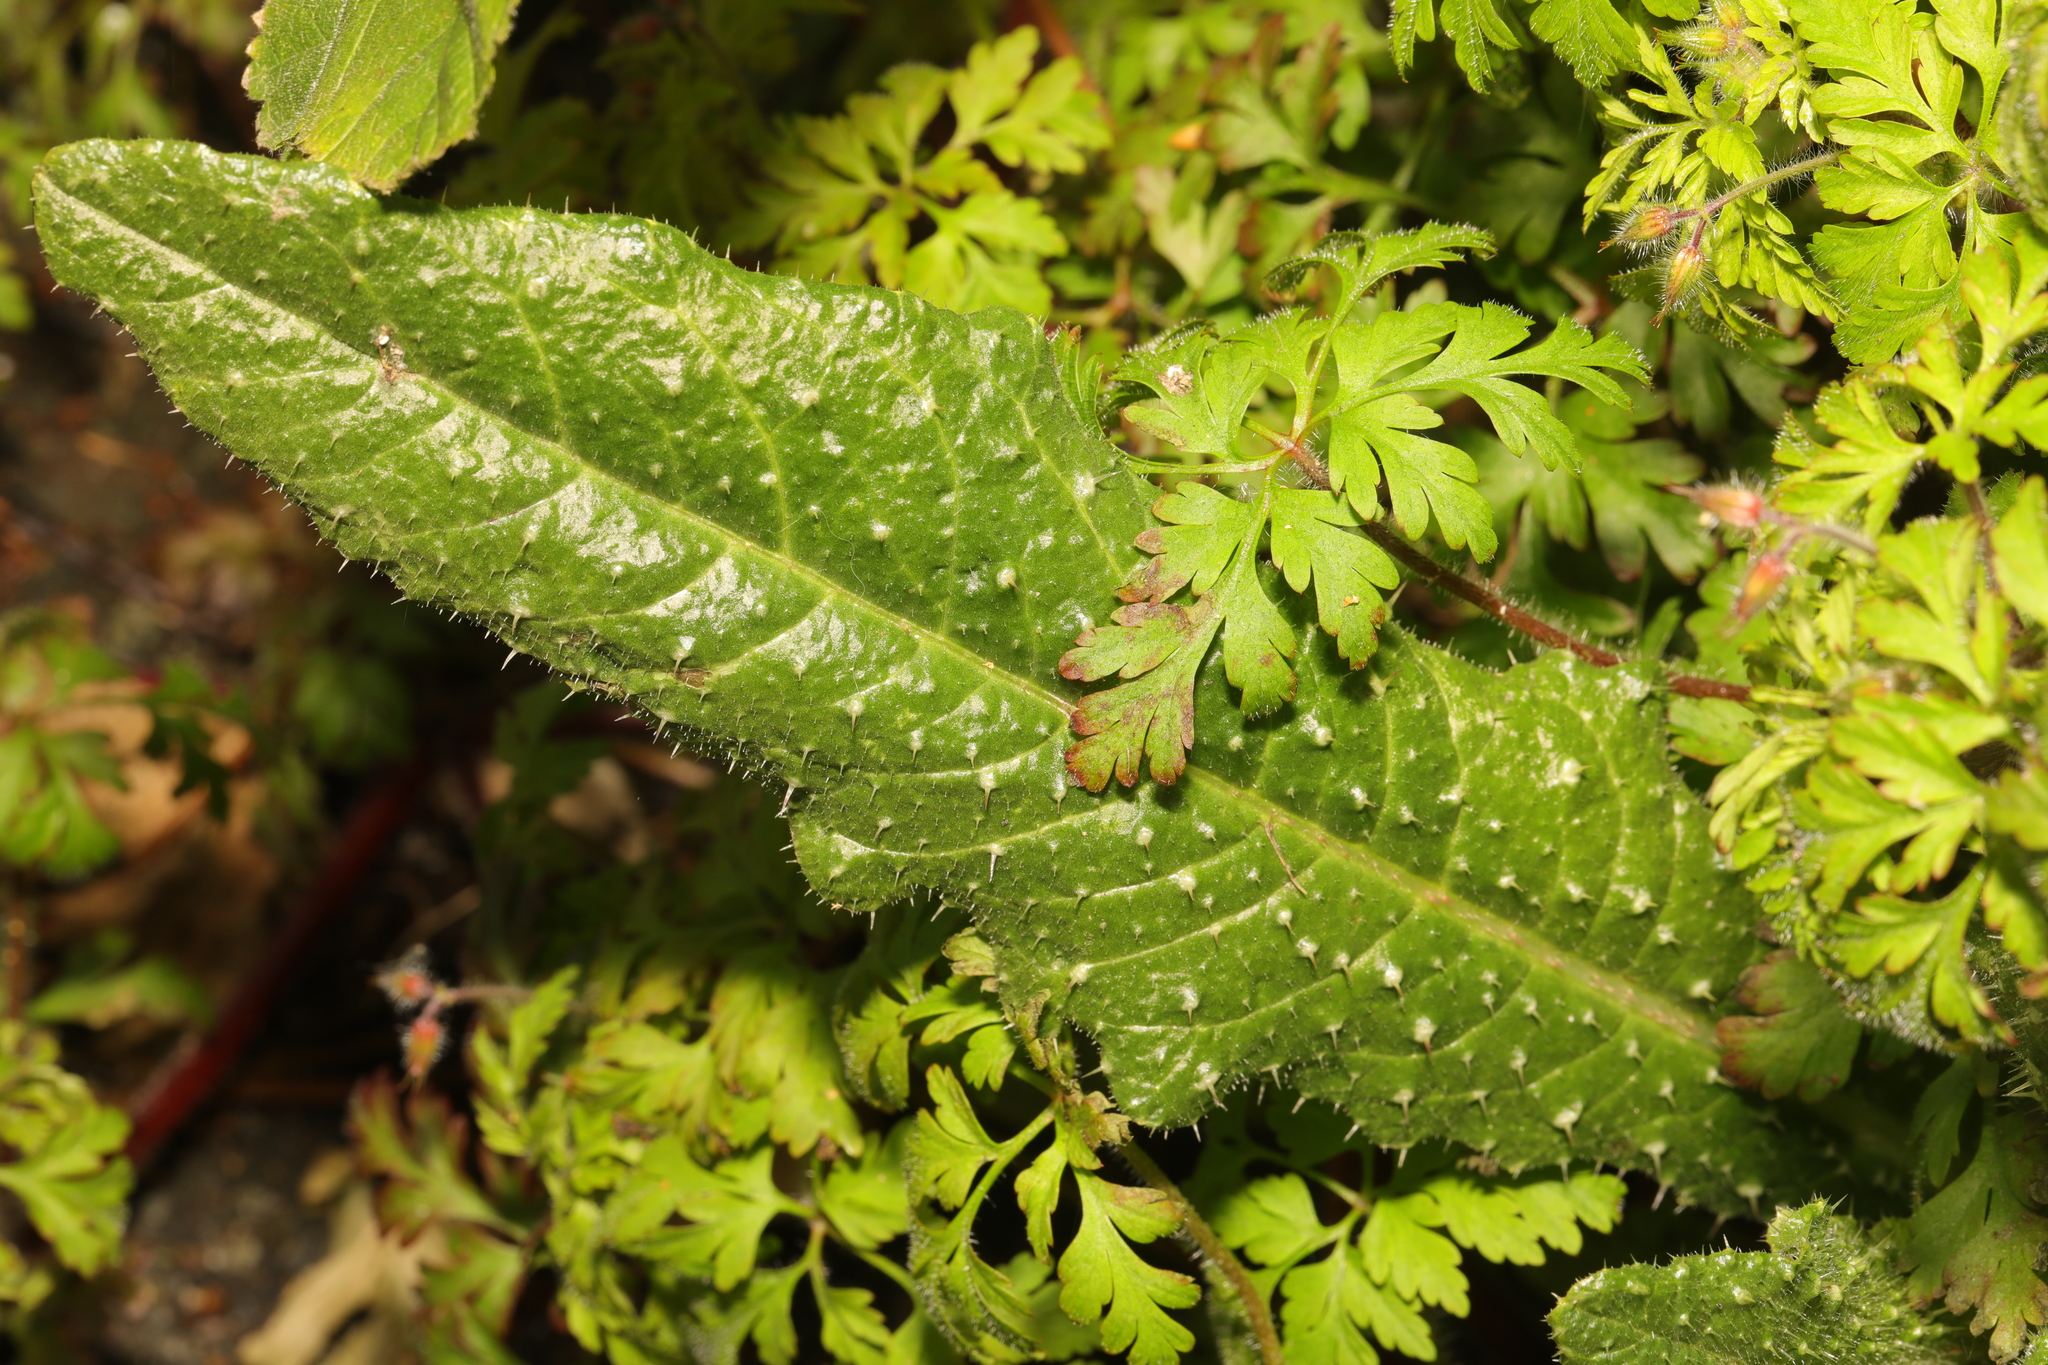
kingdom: Plantae
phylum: Tracheophyta
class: Magnoliopsida
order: Asterales
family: Asteraceae
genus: Helminthotheca
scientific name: Helminthotheca echioides
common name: Ox-tongue
